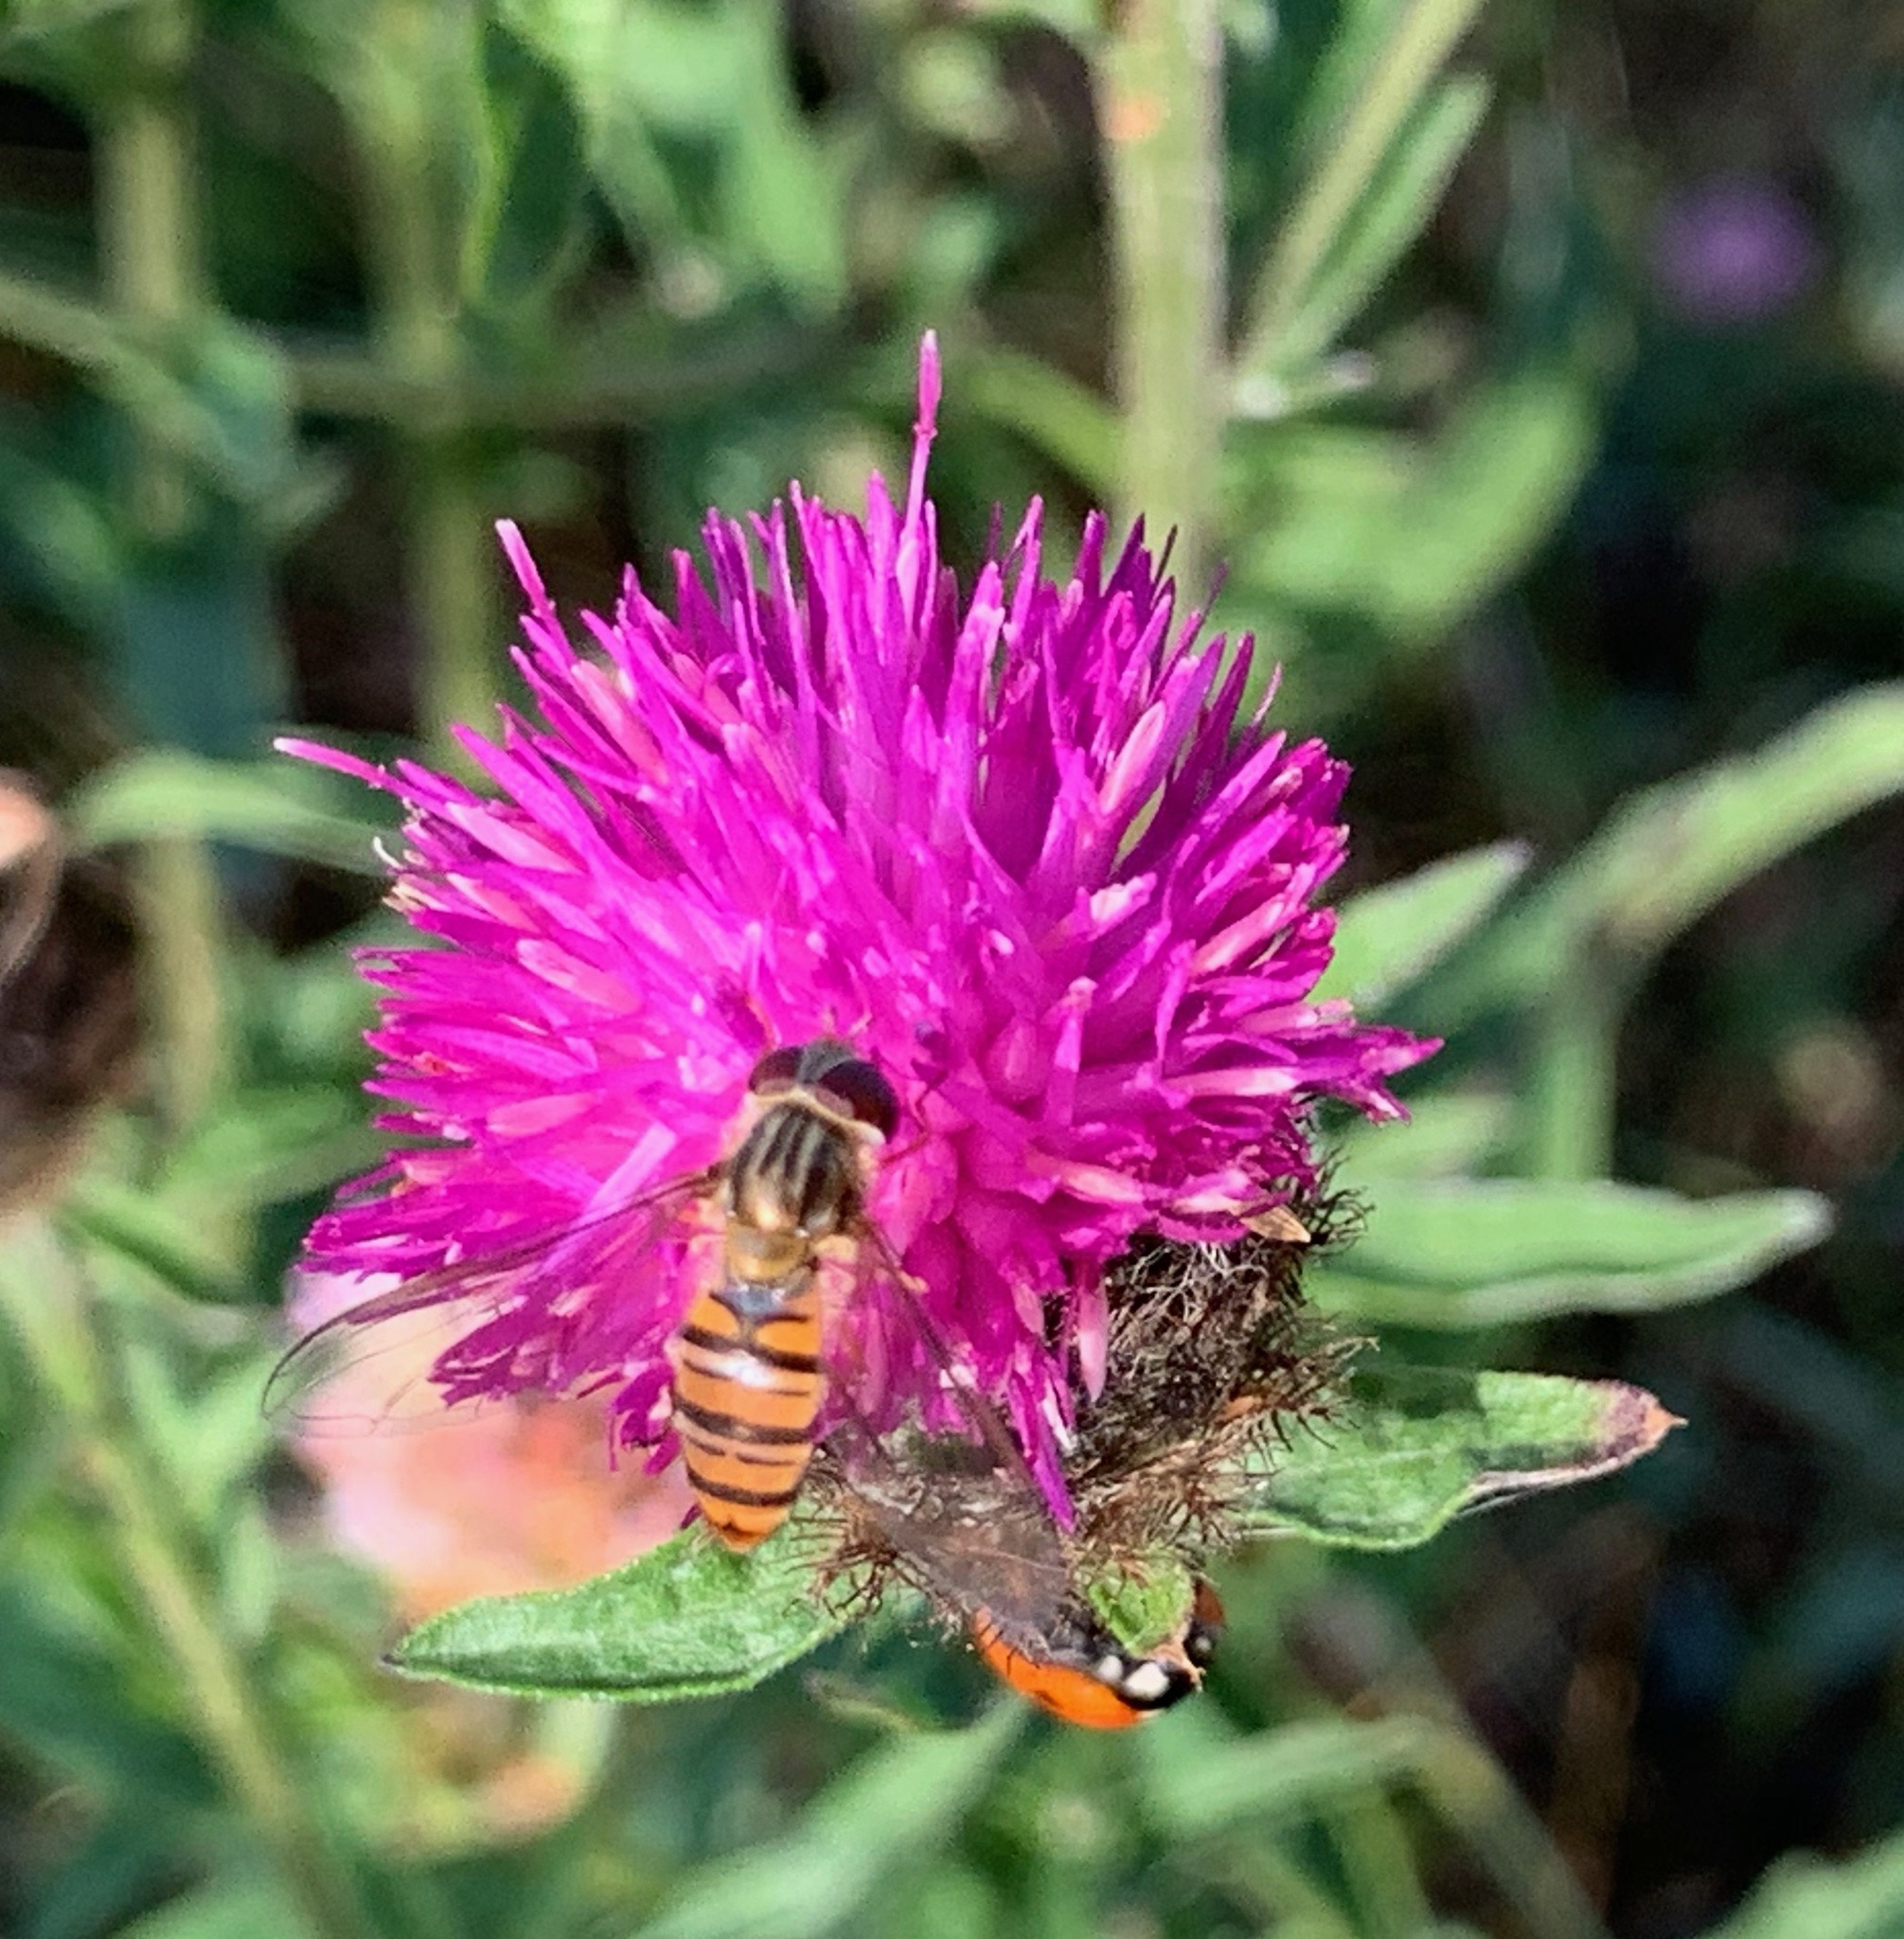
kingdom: Animalia
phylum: Arthropoda
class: Insecta
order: Diptera
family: Syrphidae
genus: Episyrphus
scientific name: Episyrphus balteatus
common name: Marmalade hoverfly
